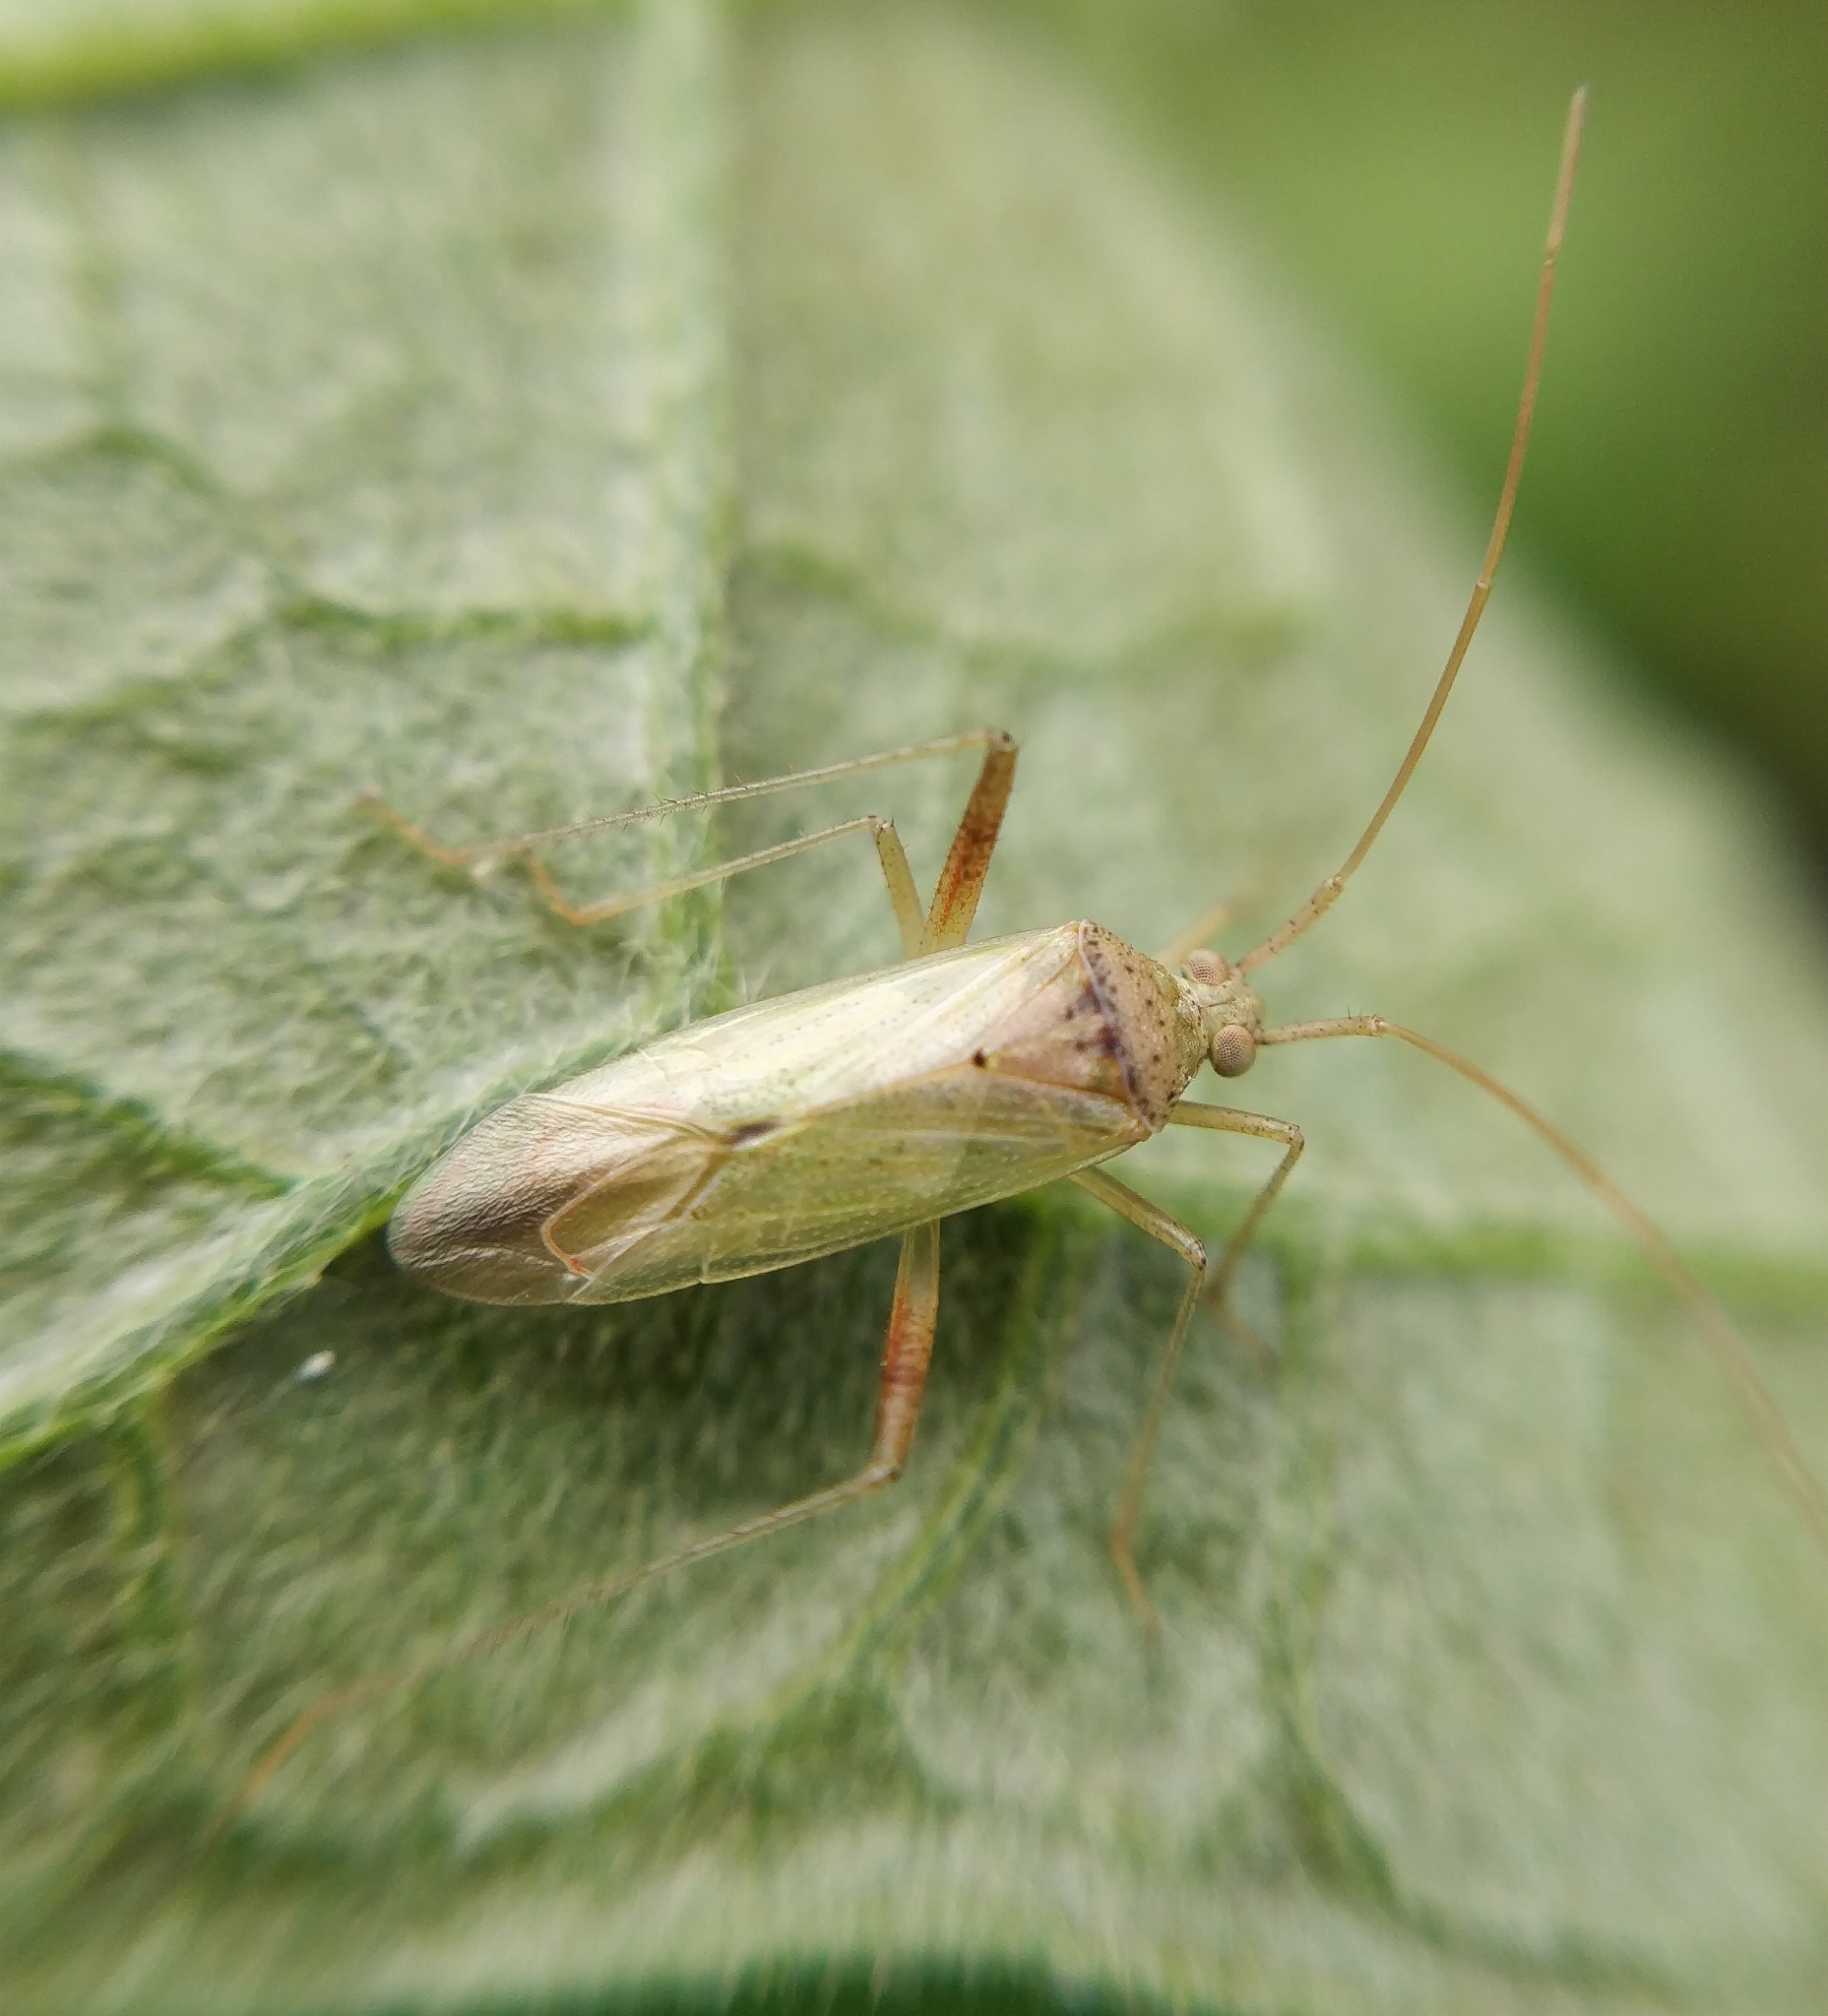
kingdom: Animalia
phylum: Arthropoda
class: Insecta
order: Hemiptera
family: Miridae
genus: Creontiades
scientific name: Creontiades pallidus
